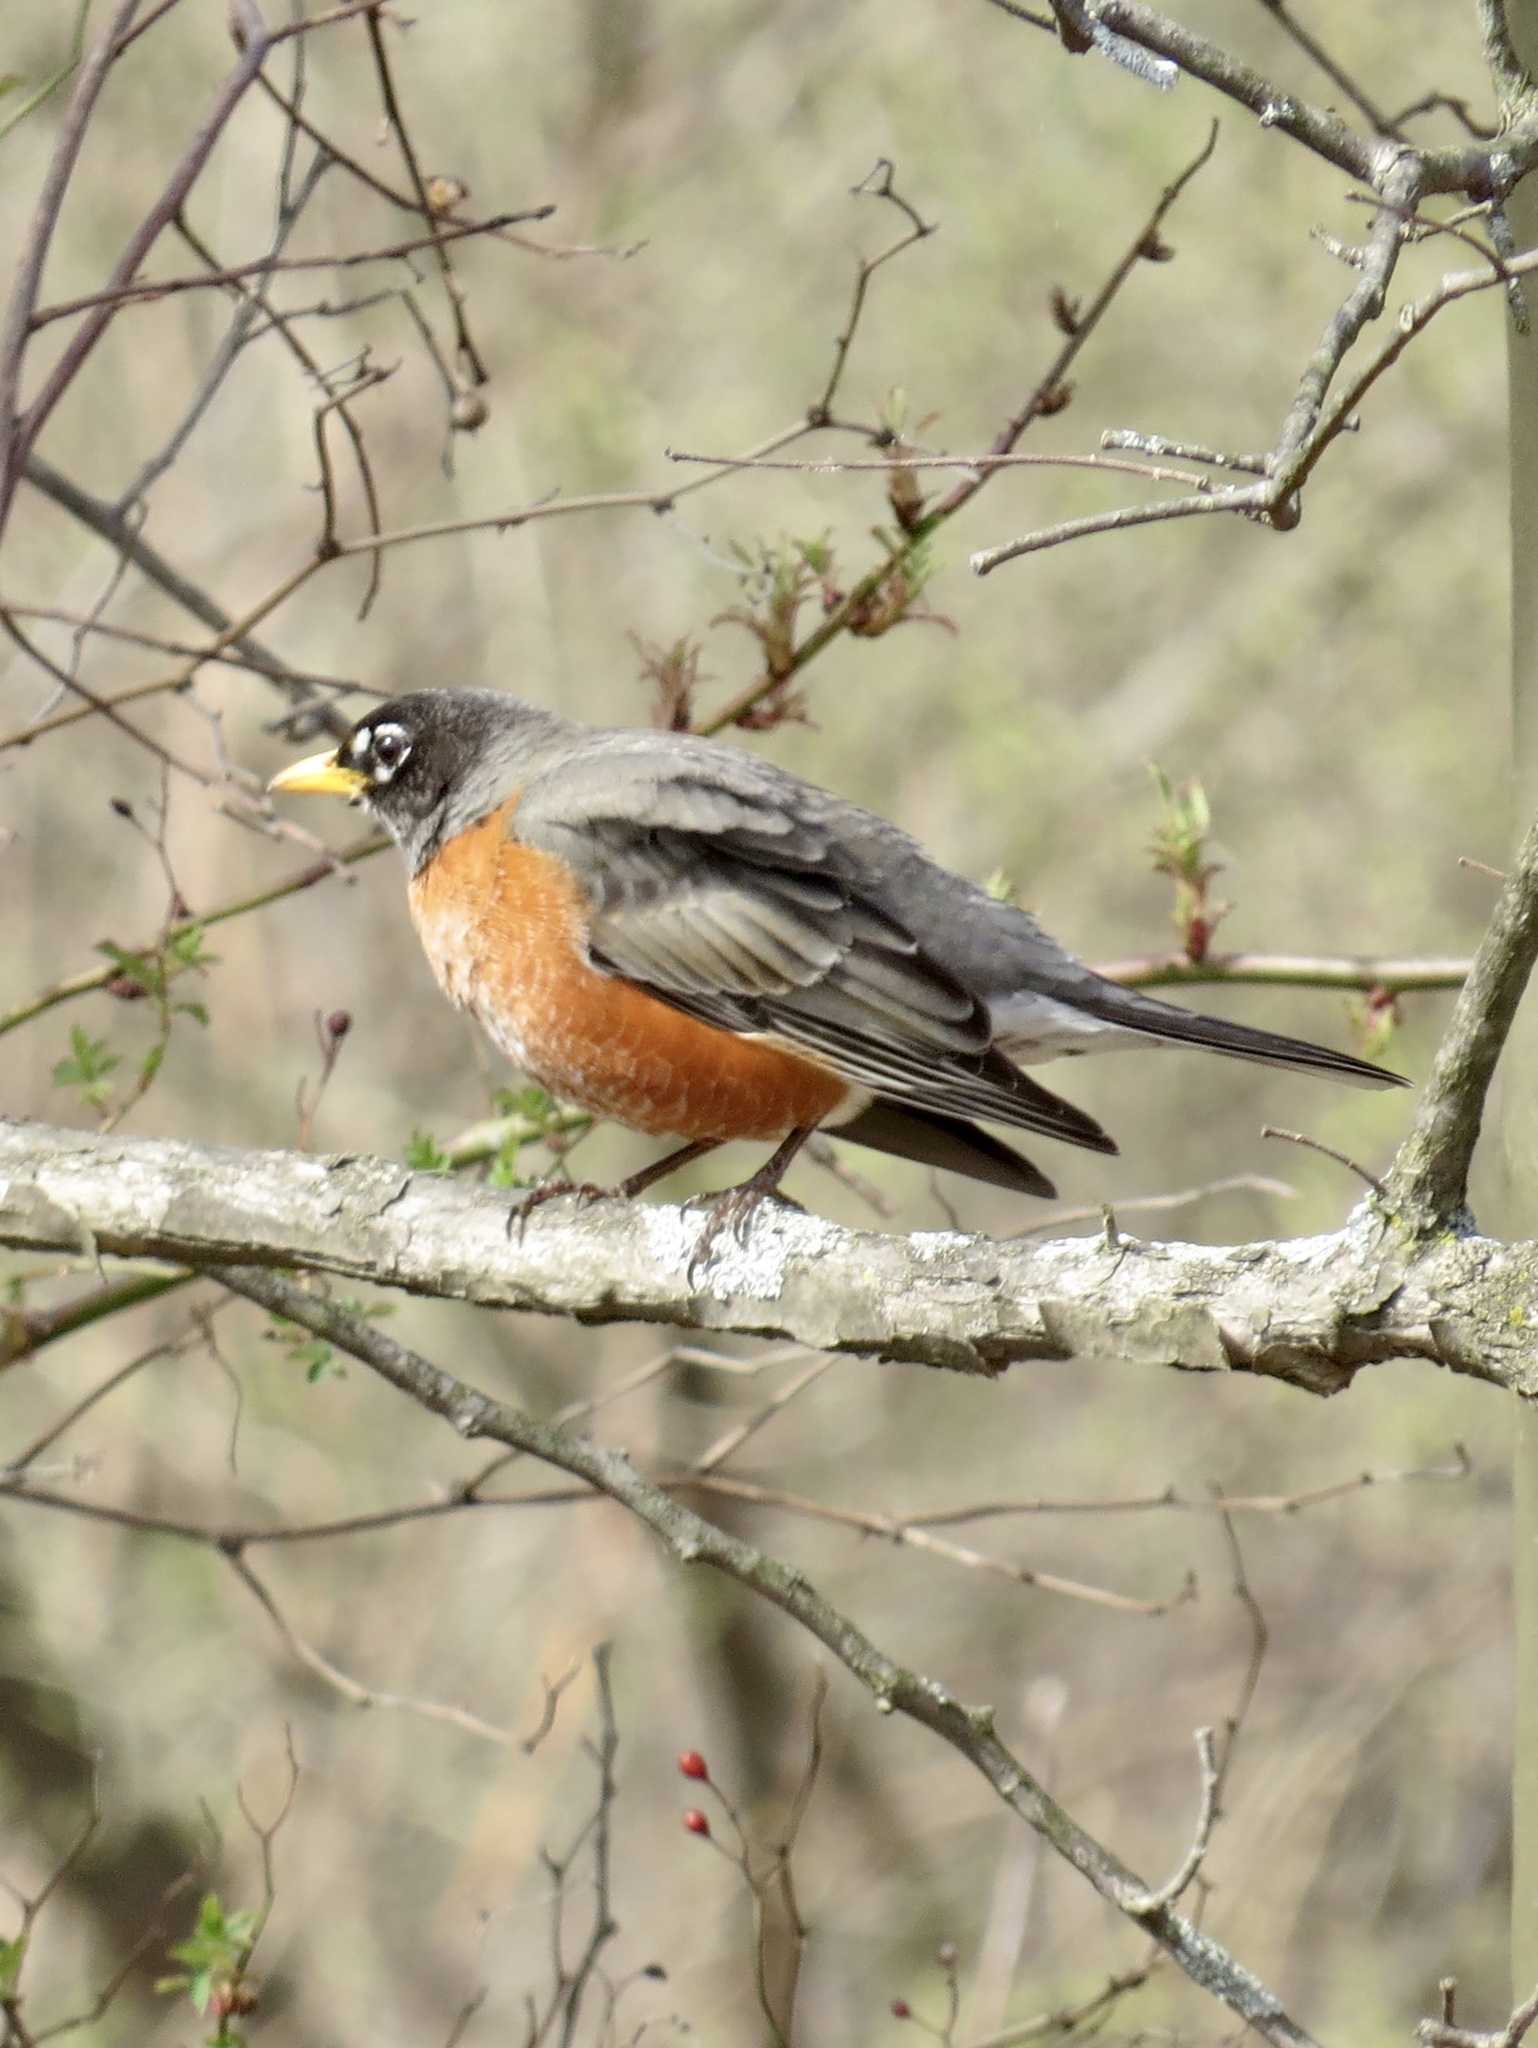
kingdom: Animalia
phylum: Chordata
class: Aves
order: Passeriformes
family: Turdidae
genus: Turdus
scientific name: Turdus migratorius
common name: American robin
